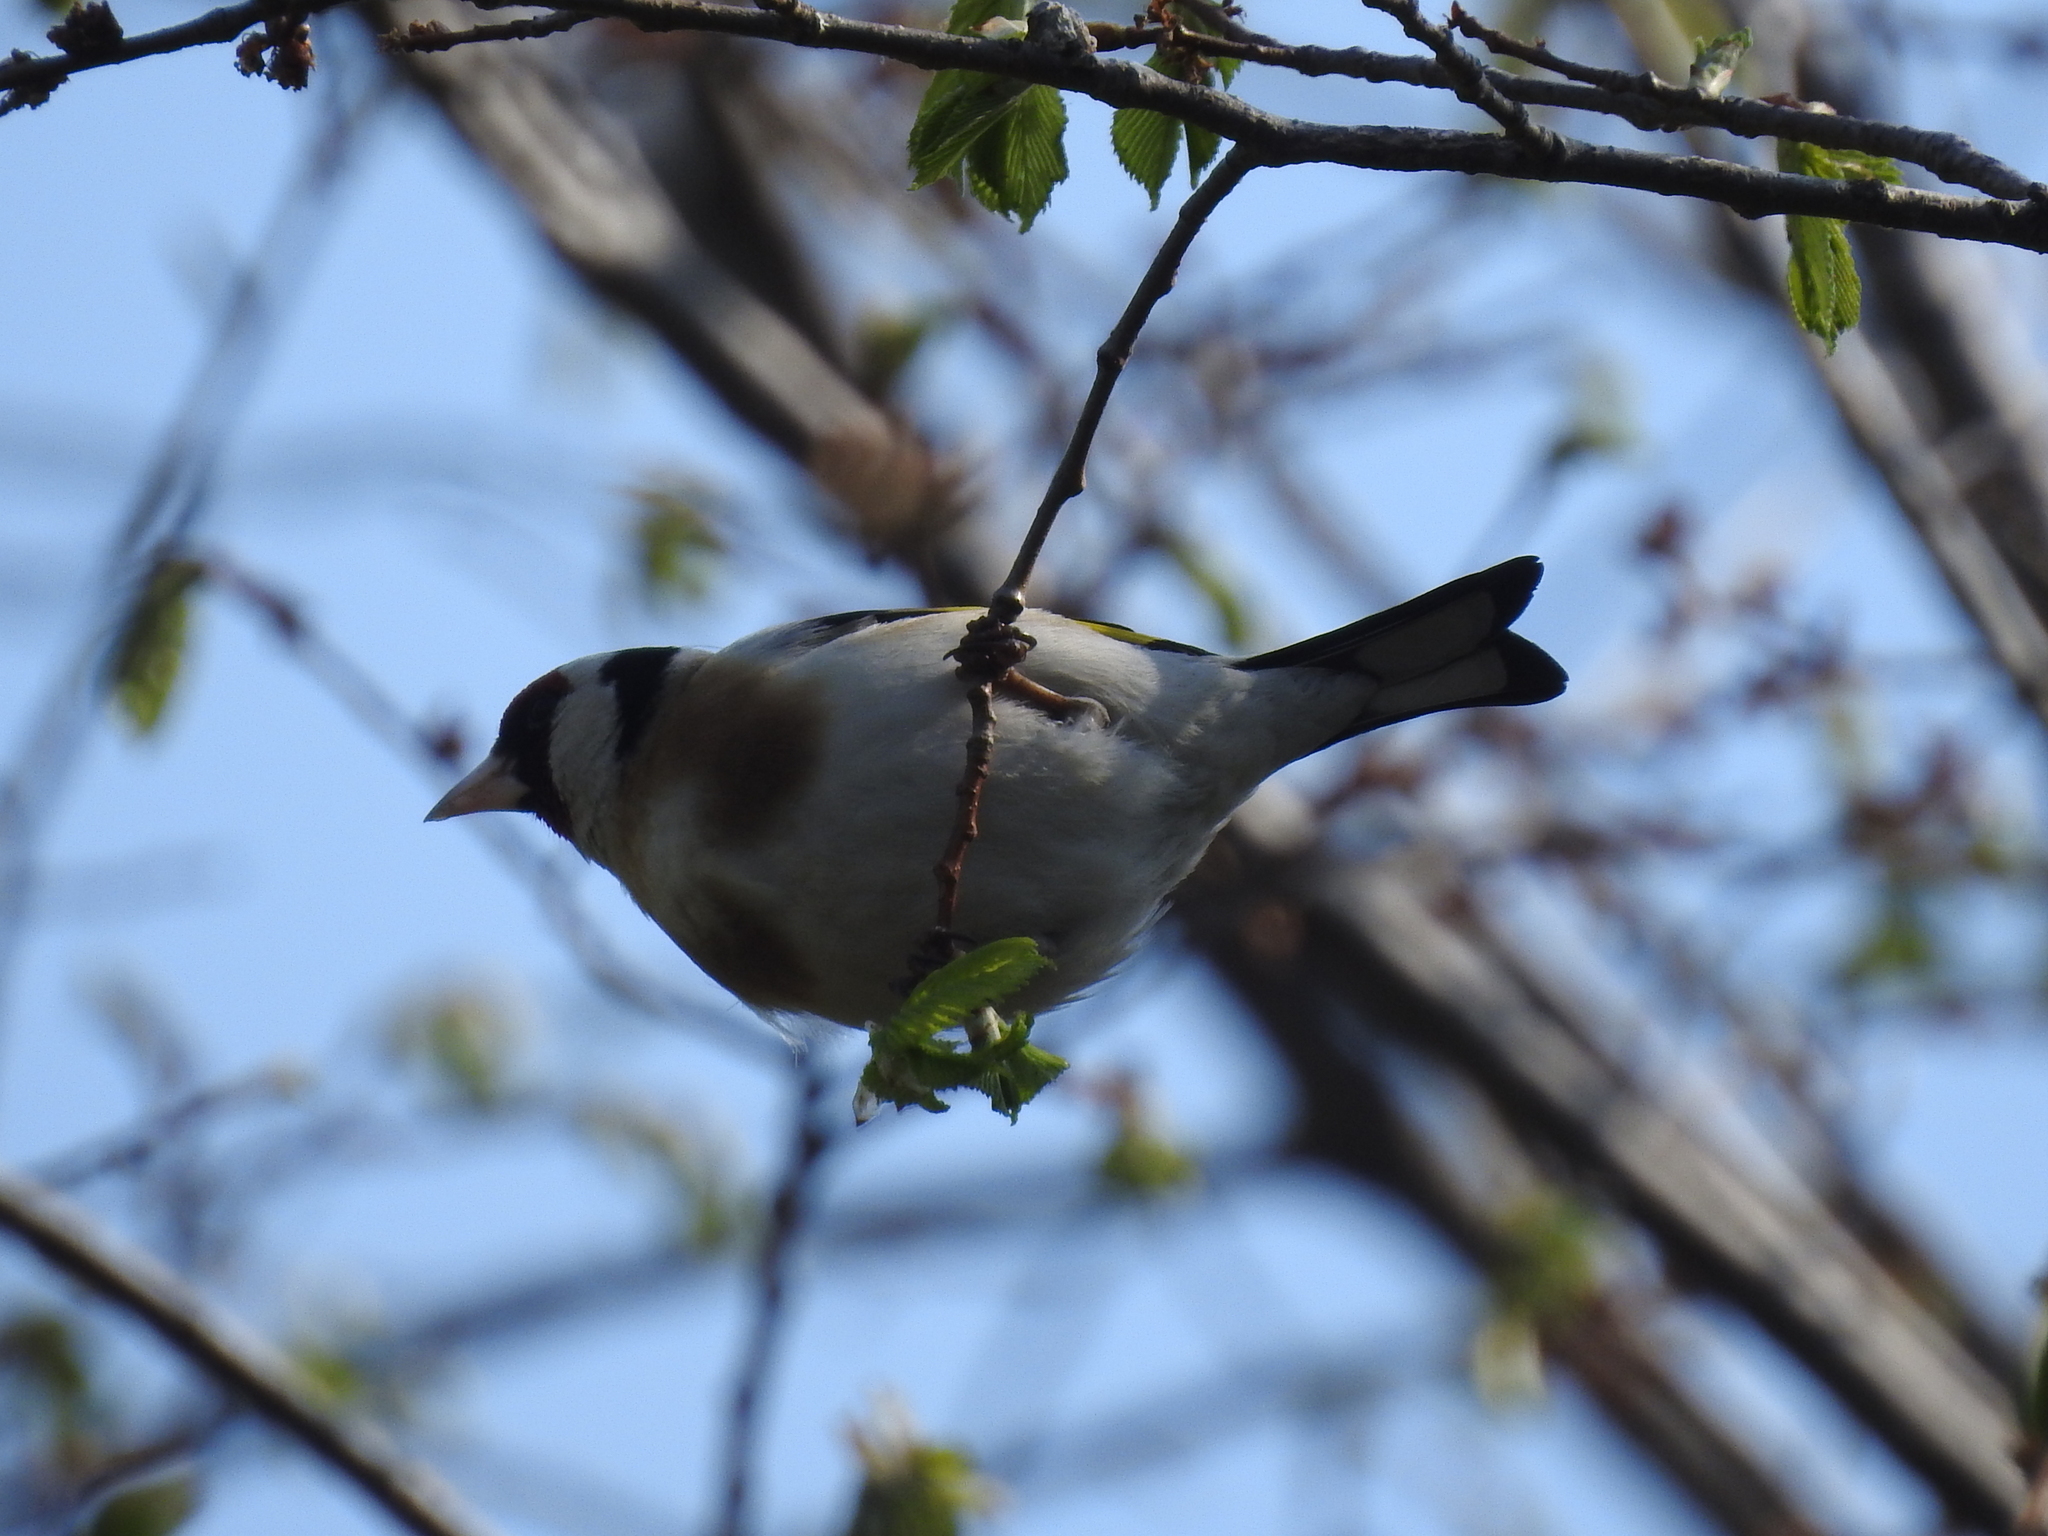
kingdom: Animalia
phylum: Chordata
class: Aves
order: Passeriformes
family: Fringillidae
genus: Carduelis
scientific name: Carduelis carduelis
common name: European goldfinch
